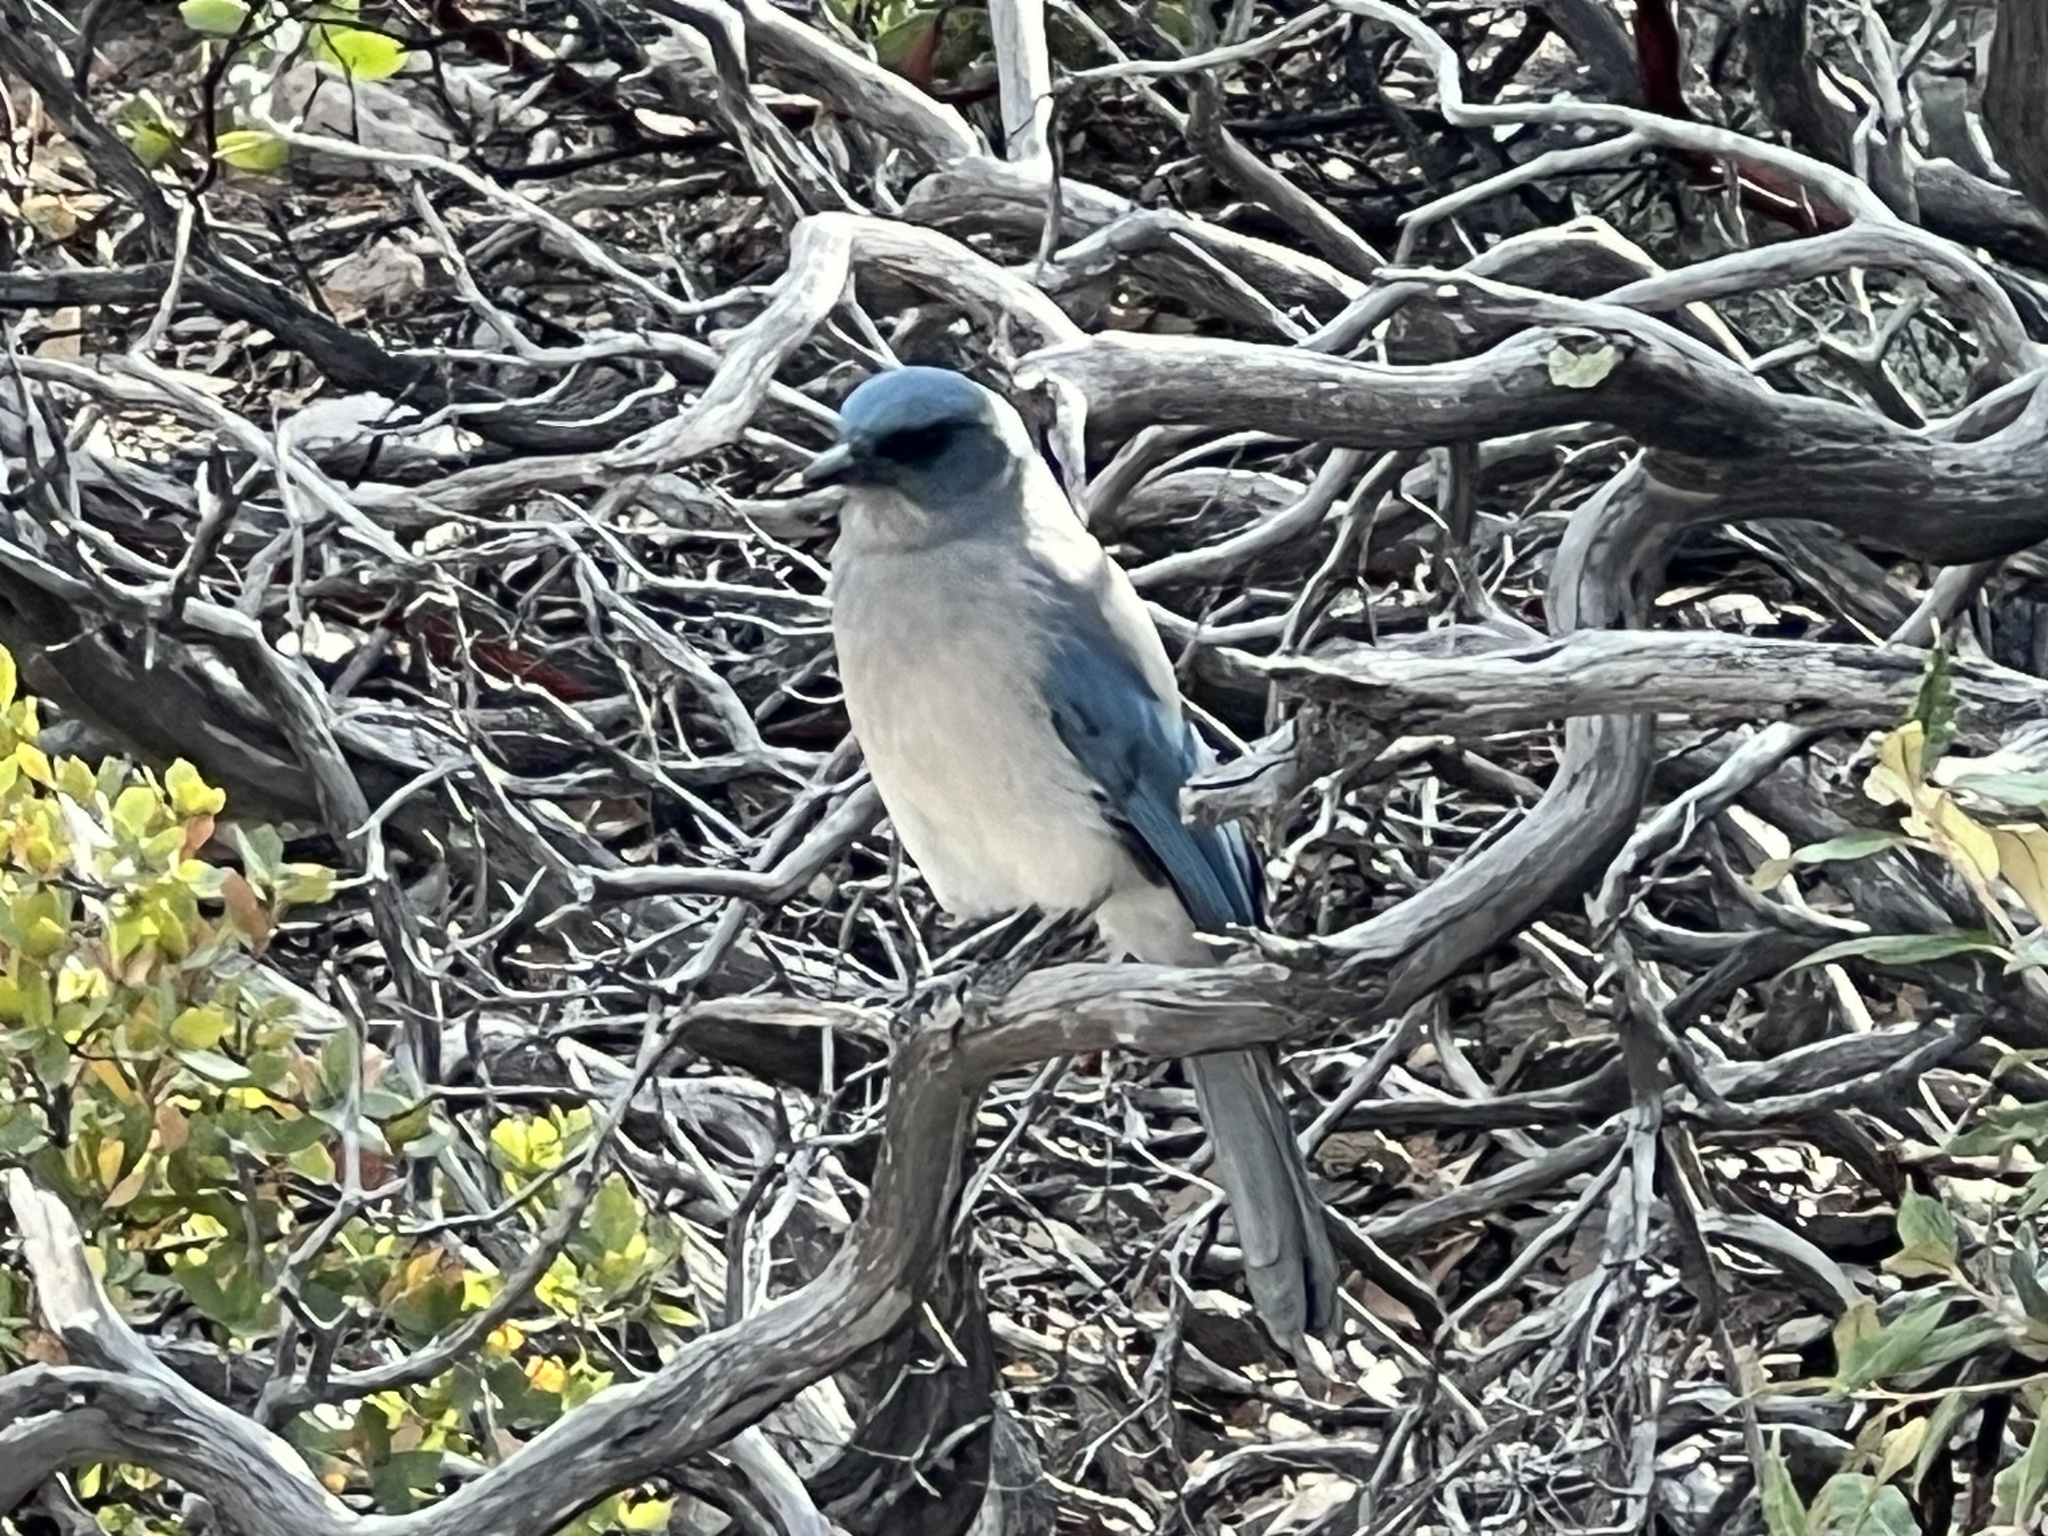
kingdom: Animalia
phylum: Chordata
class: Aves
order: Passeriformes
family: Corvidae
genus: Aphelocoma
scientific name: Aphelocoma wollweberi
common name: Mexican jay
